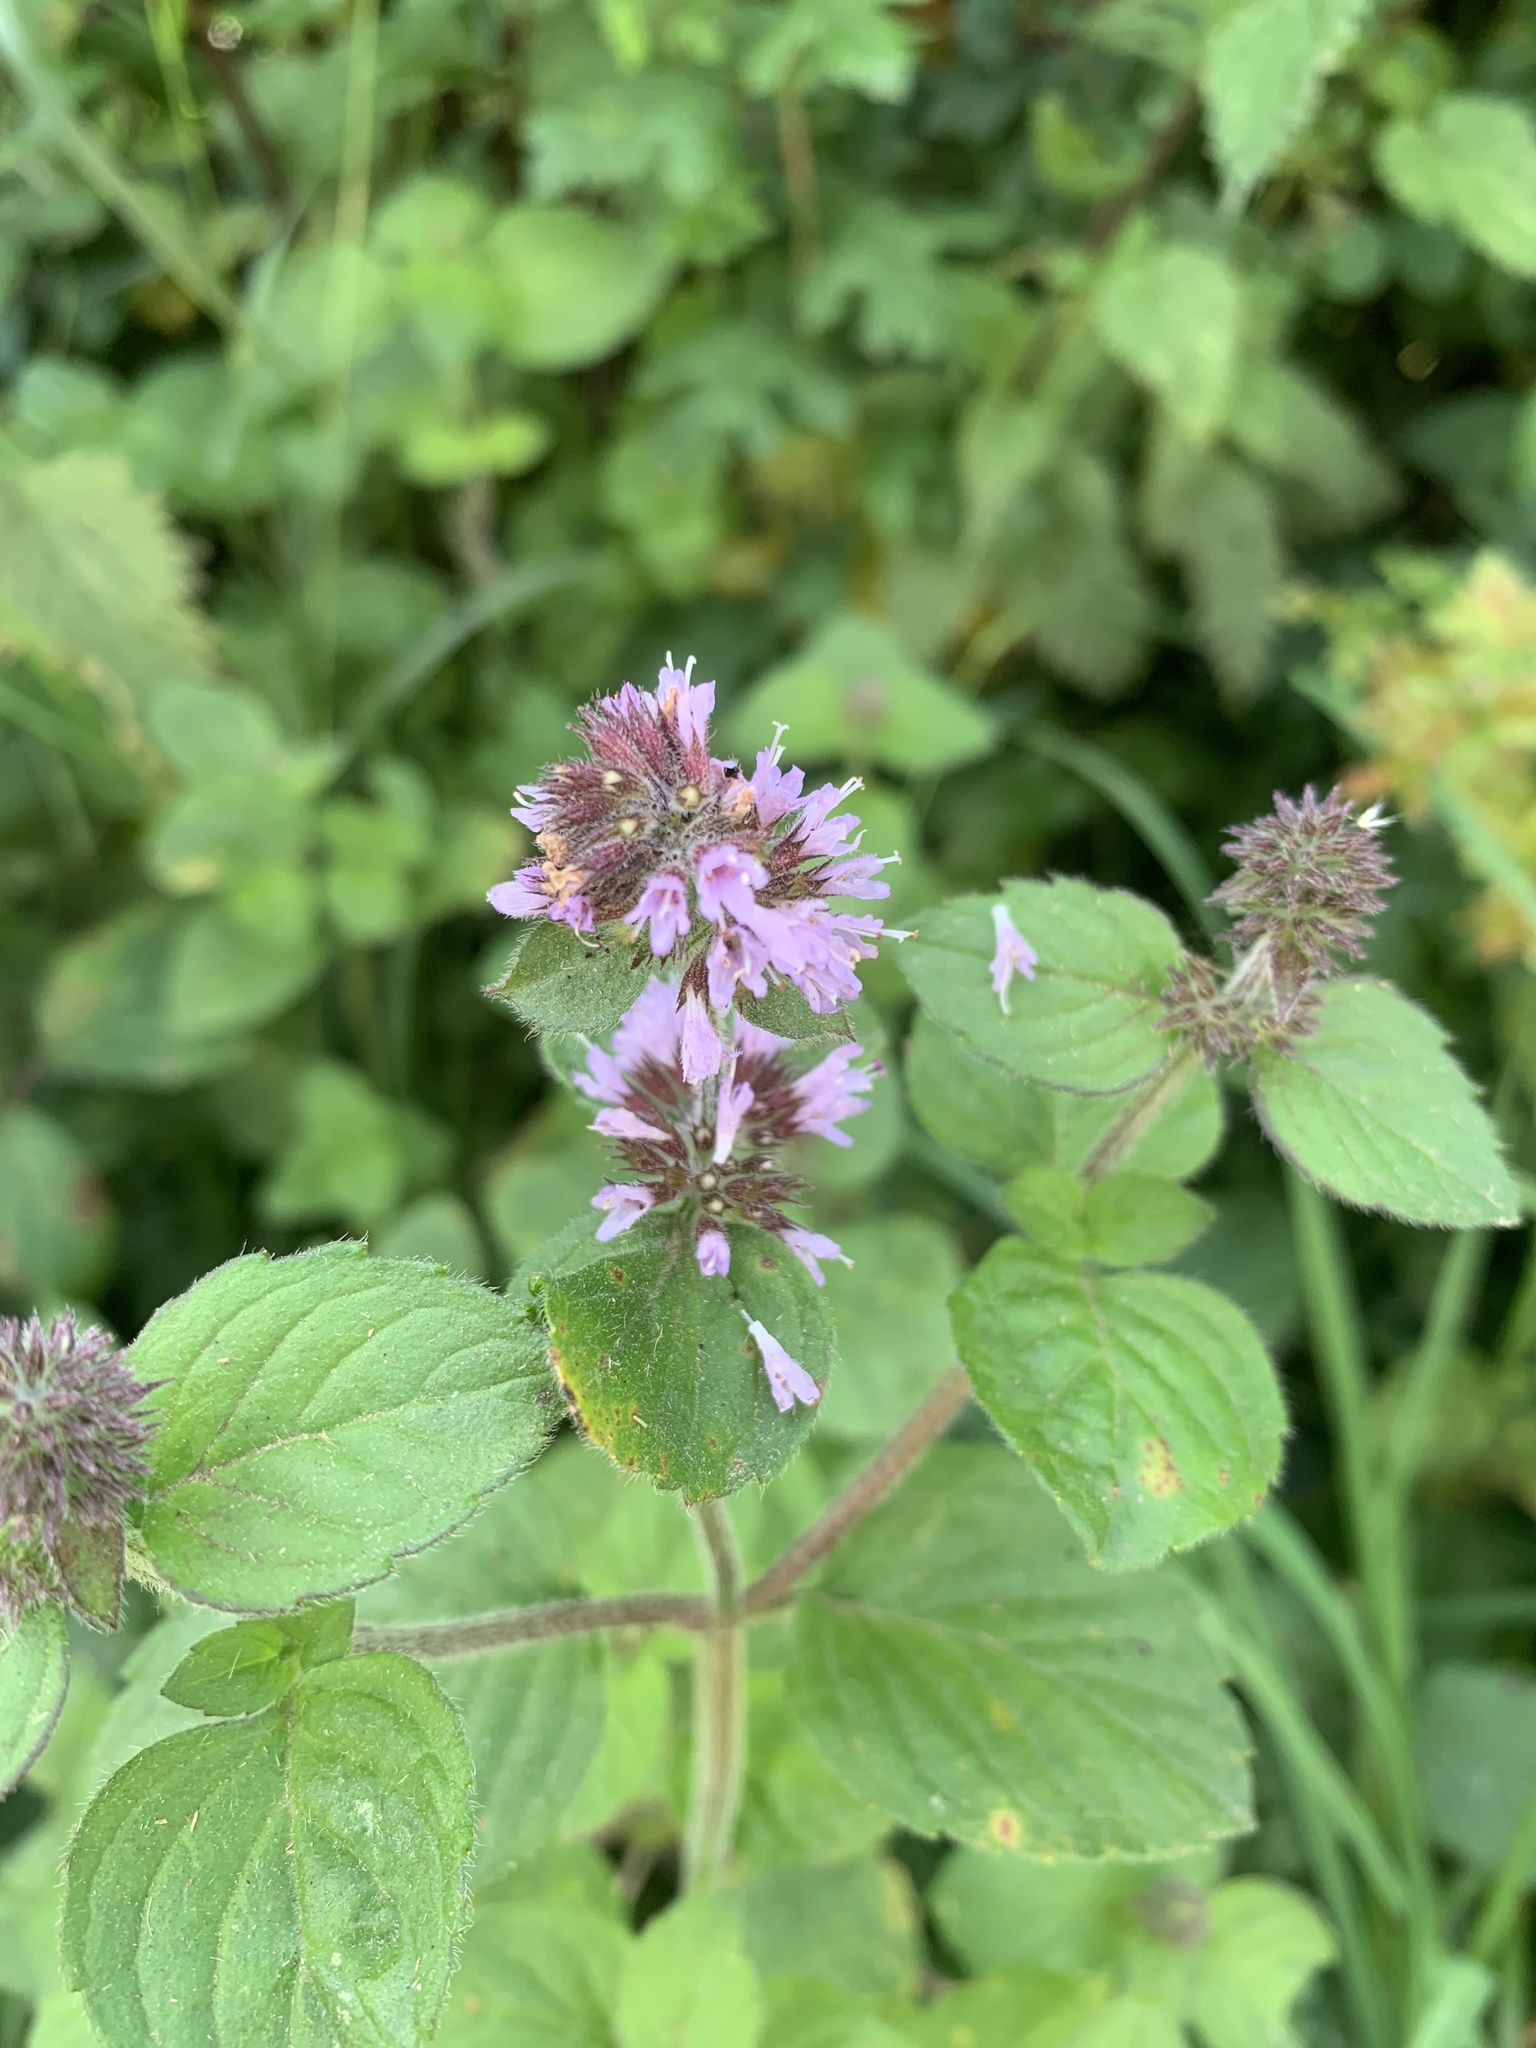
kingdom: Plantae
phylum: Tracheophyta
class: Magnoliopsida
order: Lamiales
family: Lamiaceae
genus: Origanum
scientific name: Origanum vulgare
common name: Wild marjoram
